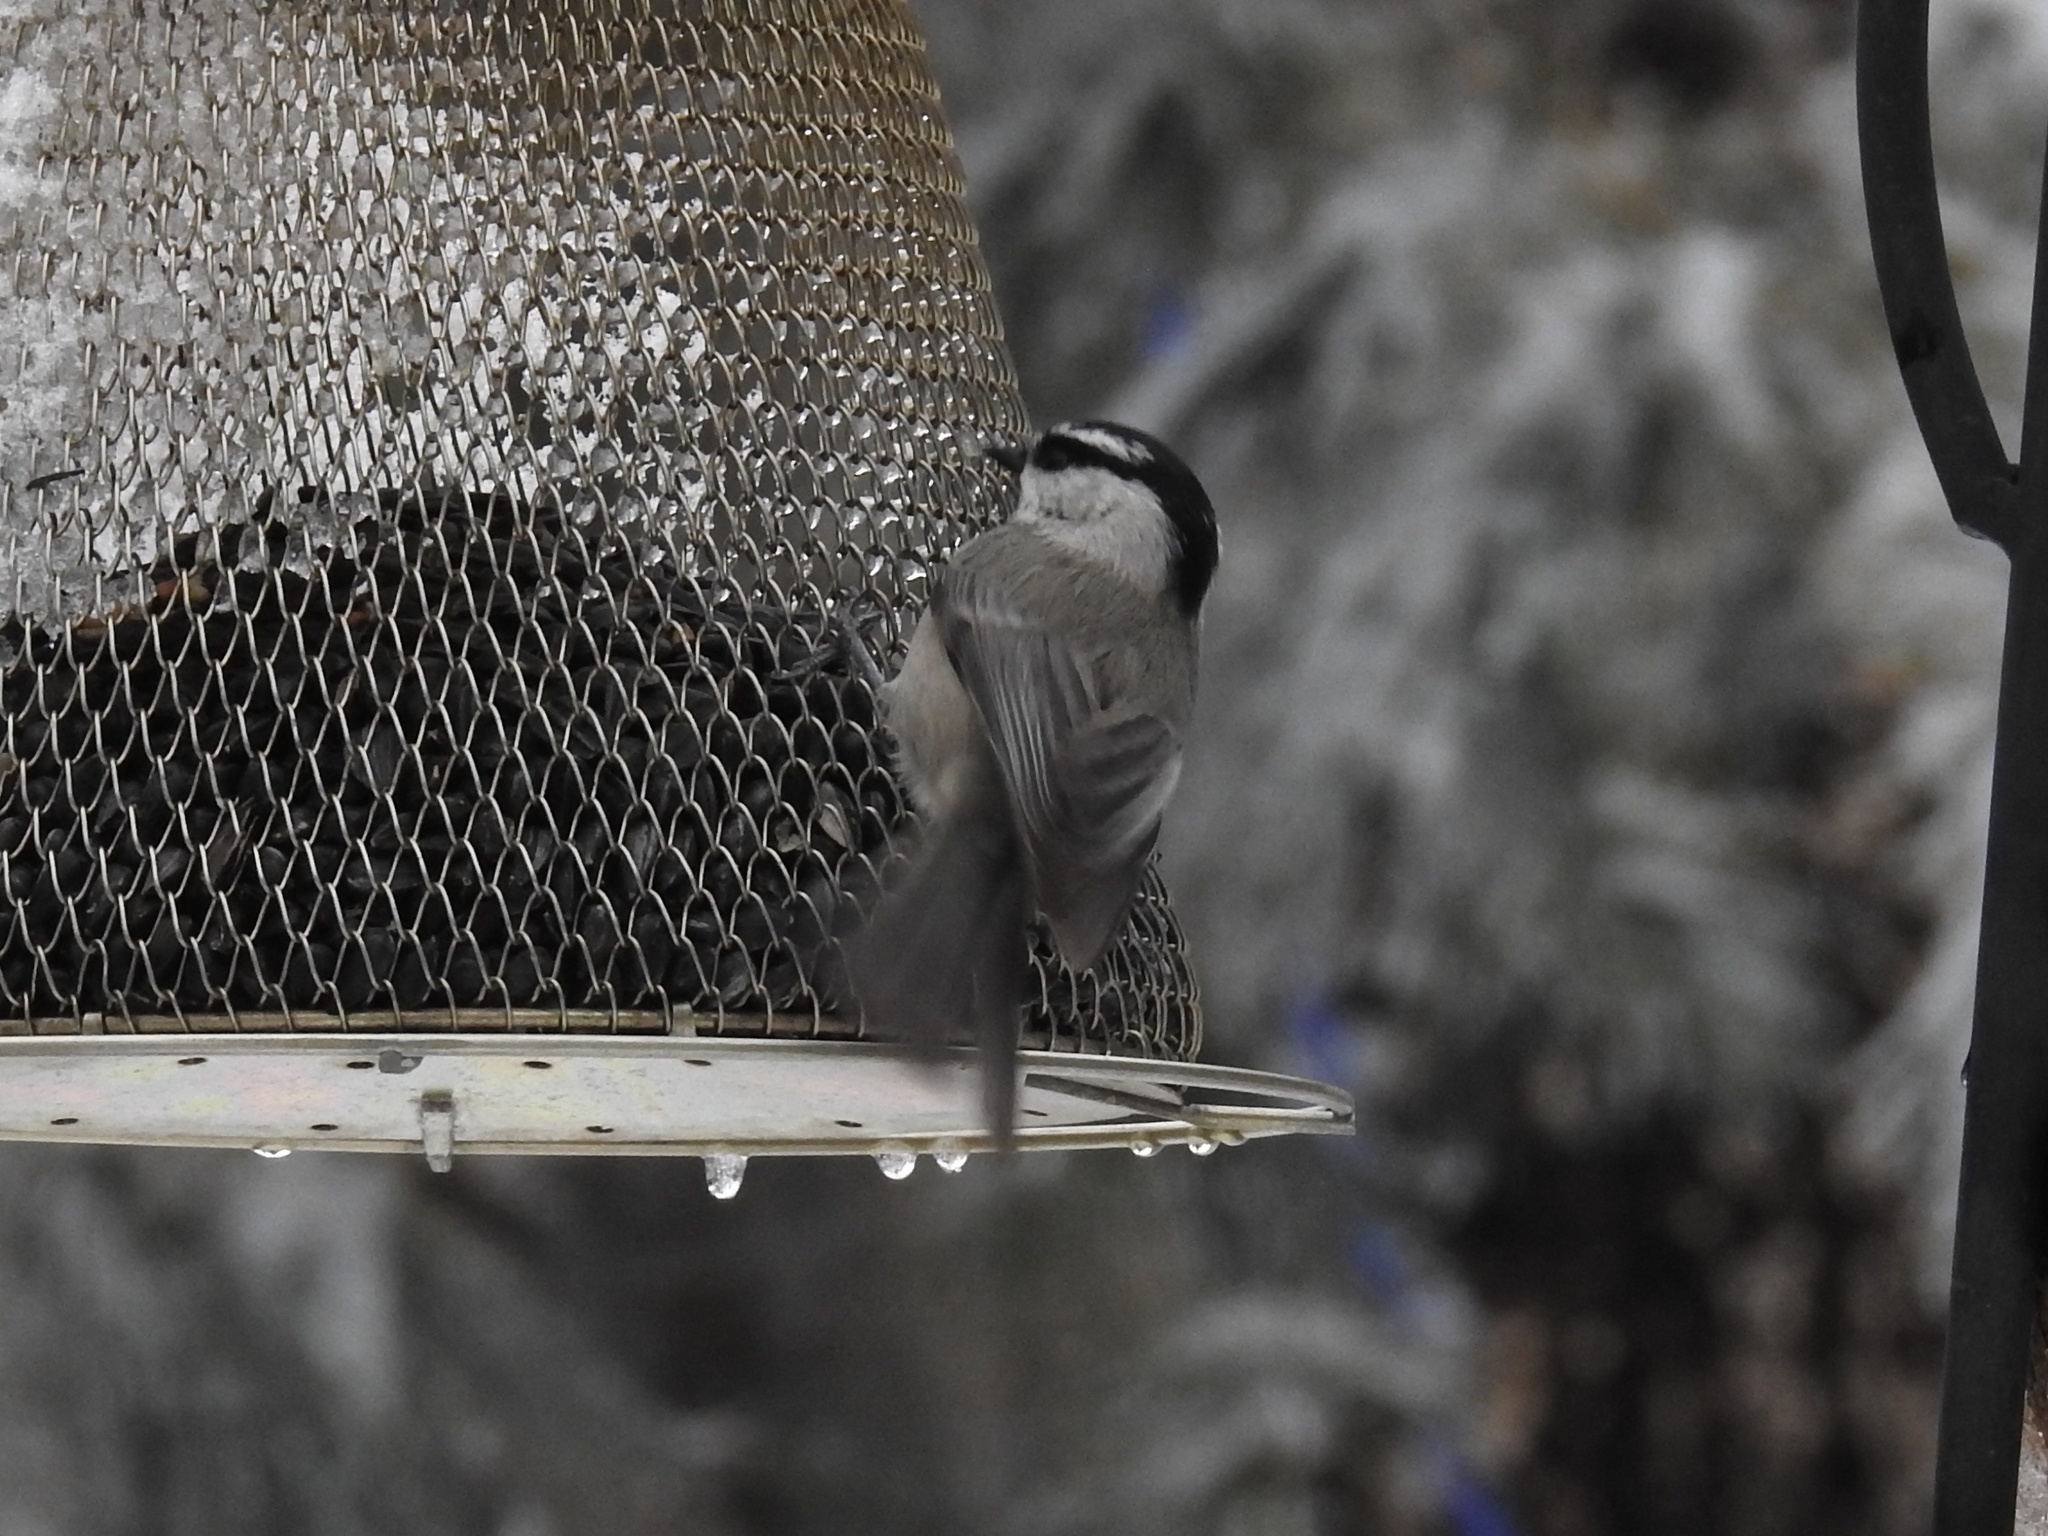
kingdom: Animalia
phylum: Chordata
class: Aves
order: Passeriformes
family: Paridae
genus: Poecile
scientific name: Poecile gambeli
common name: Mountain chickadee
